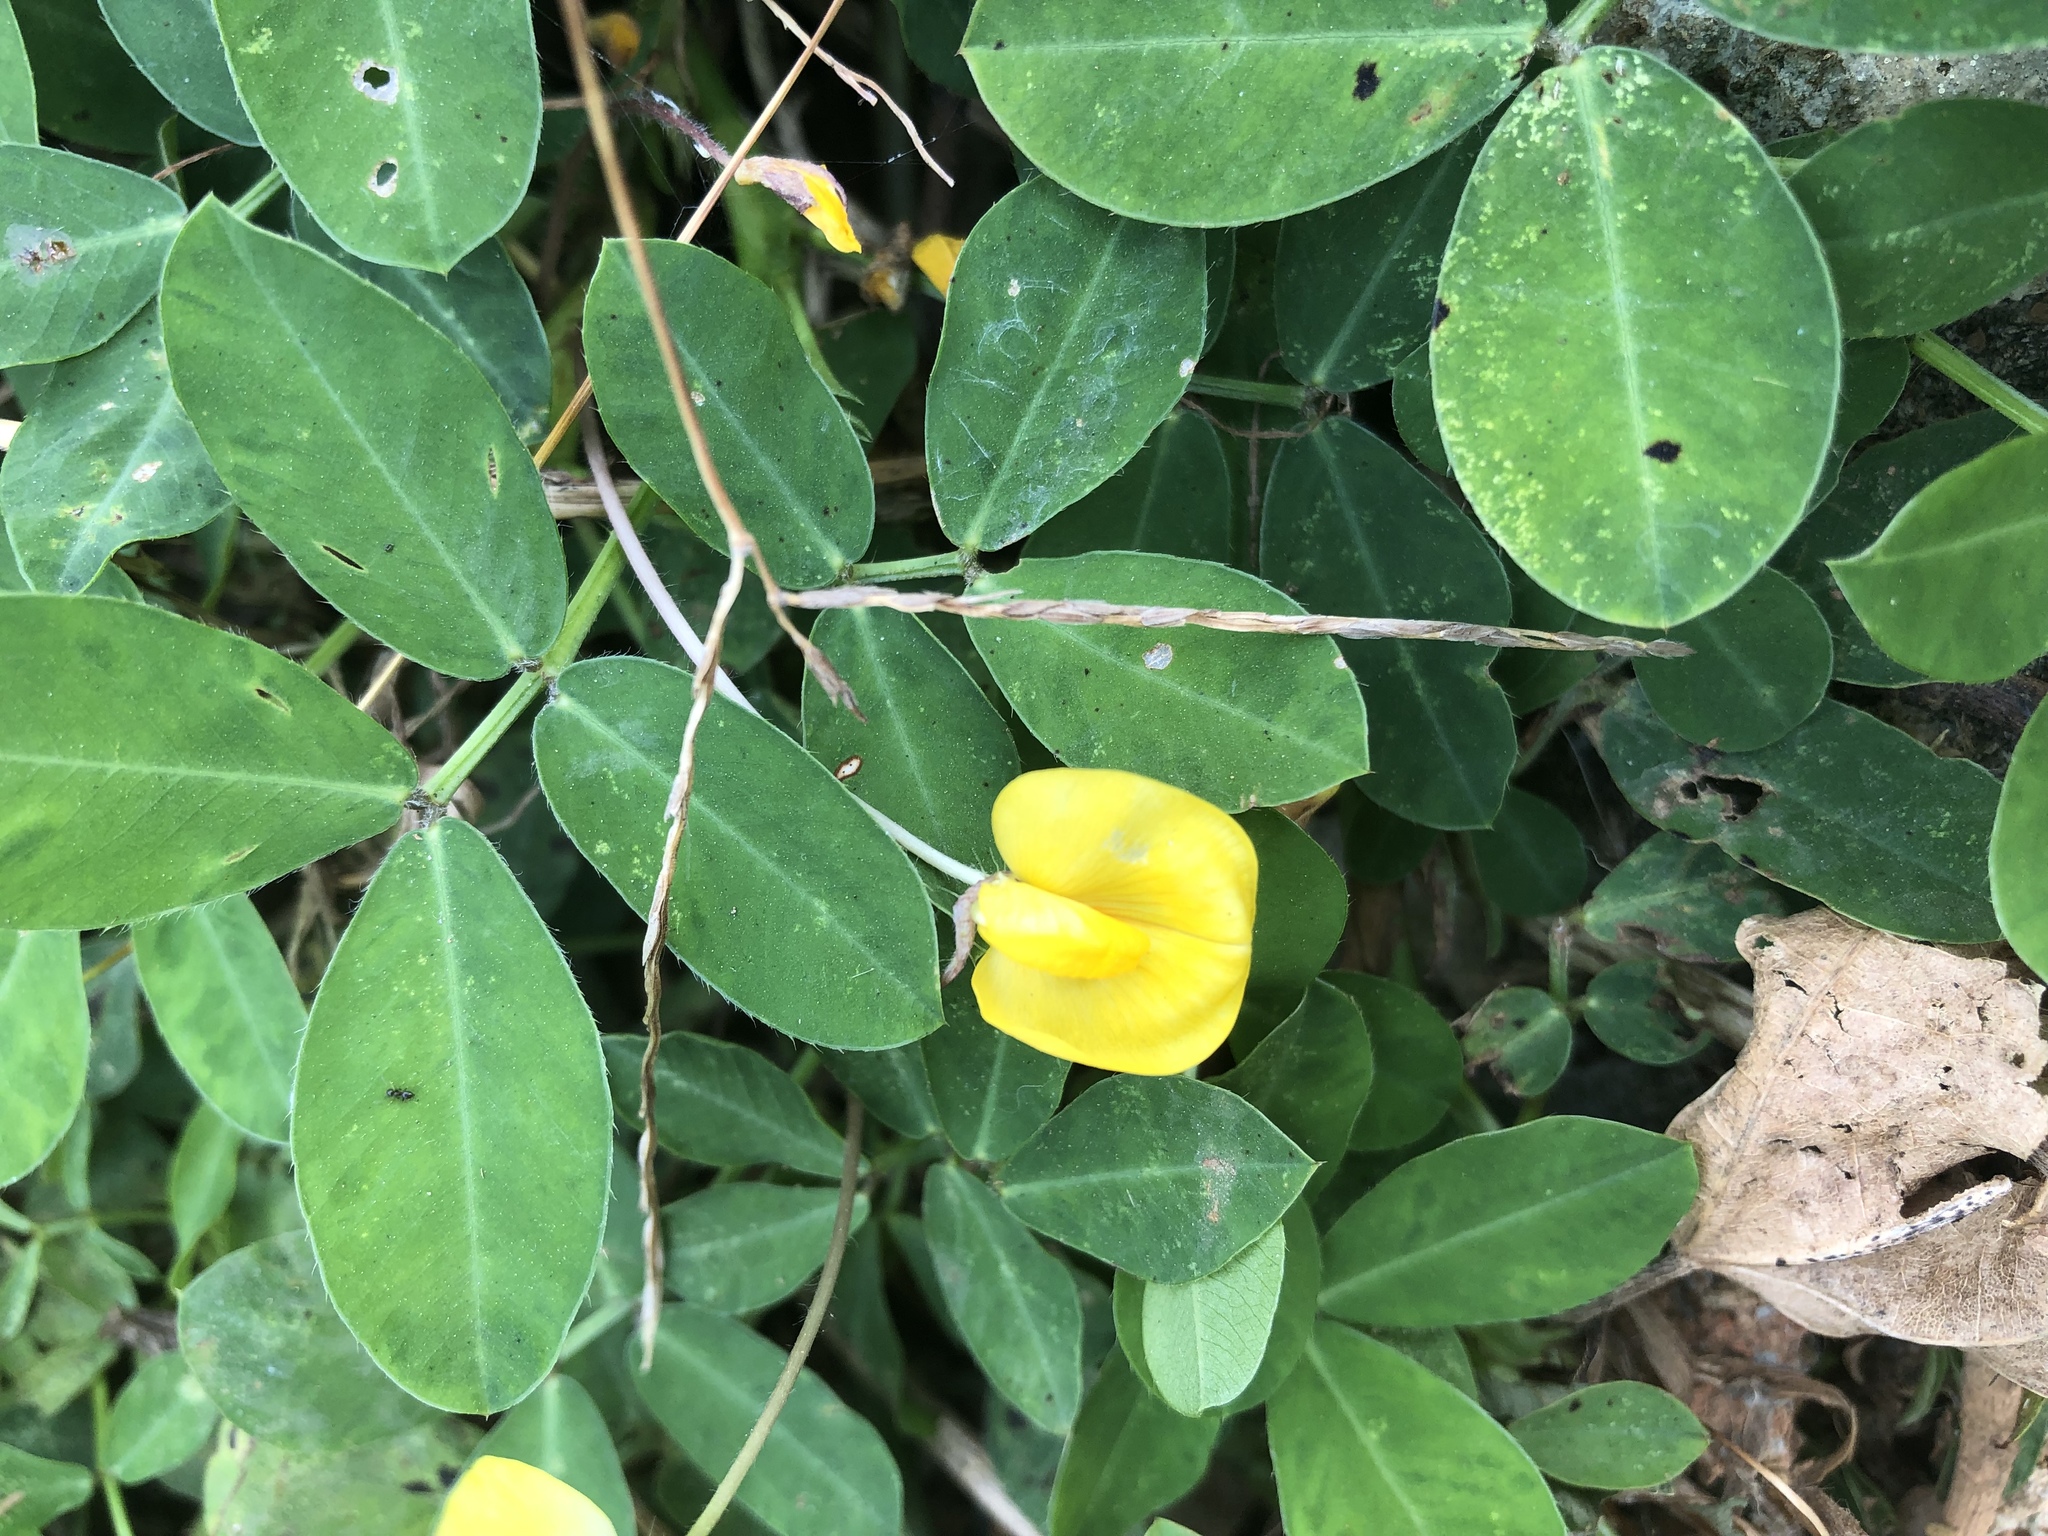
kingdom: Plantae
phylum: Tracheophyta
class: Magnoliopsida
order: Fabales
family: Fabaceae
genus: Arachis
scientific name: Arachis pintoi
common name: Pinto peanut
